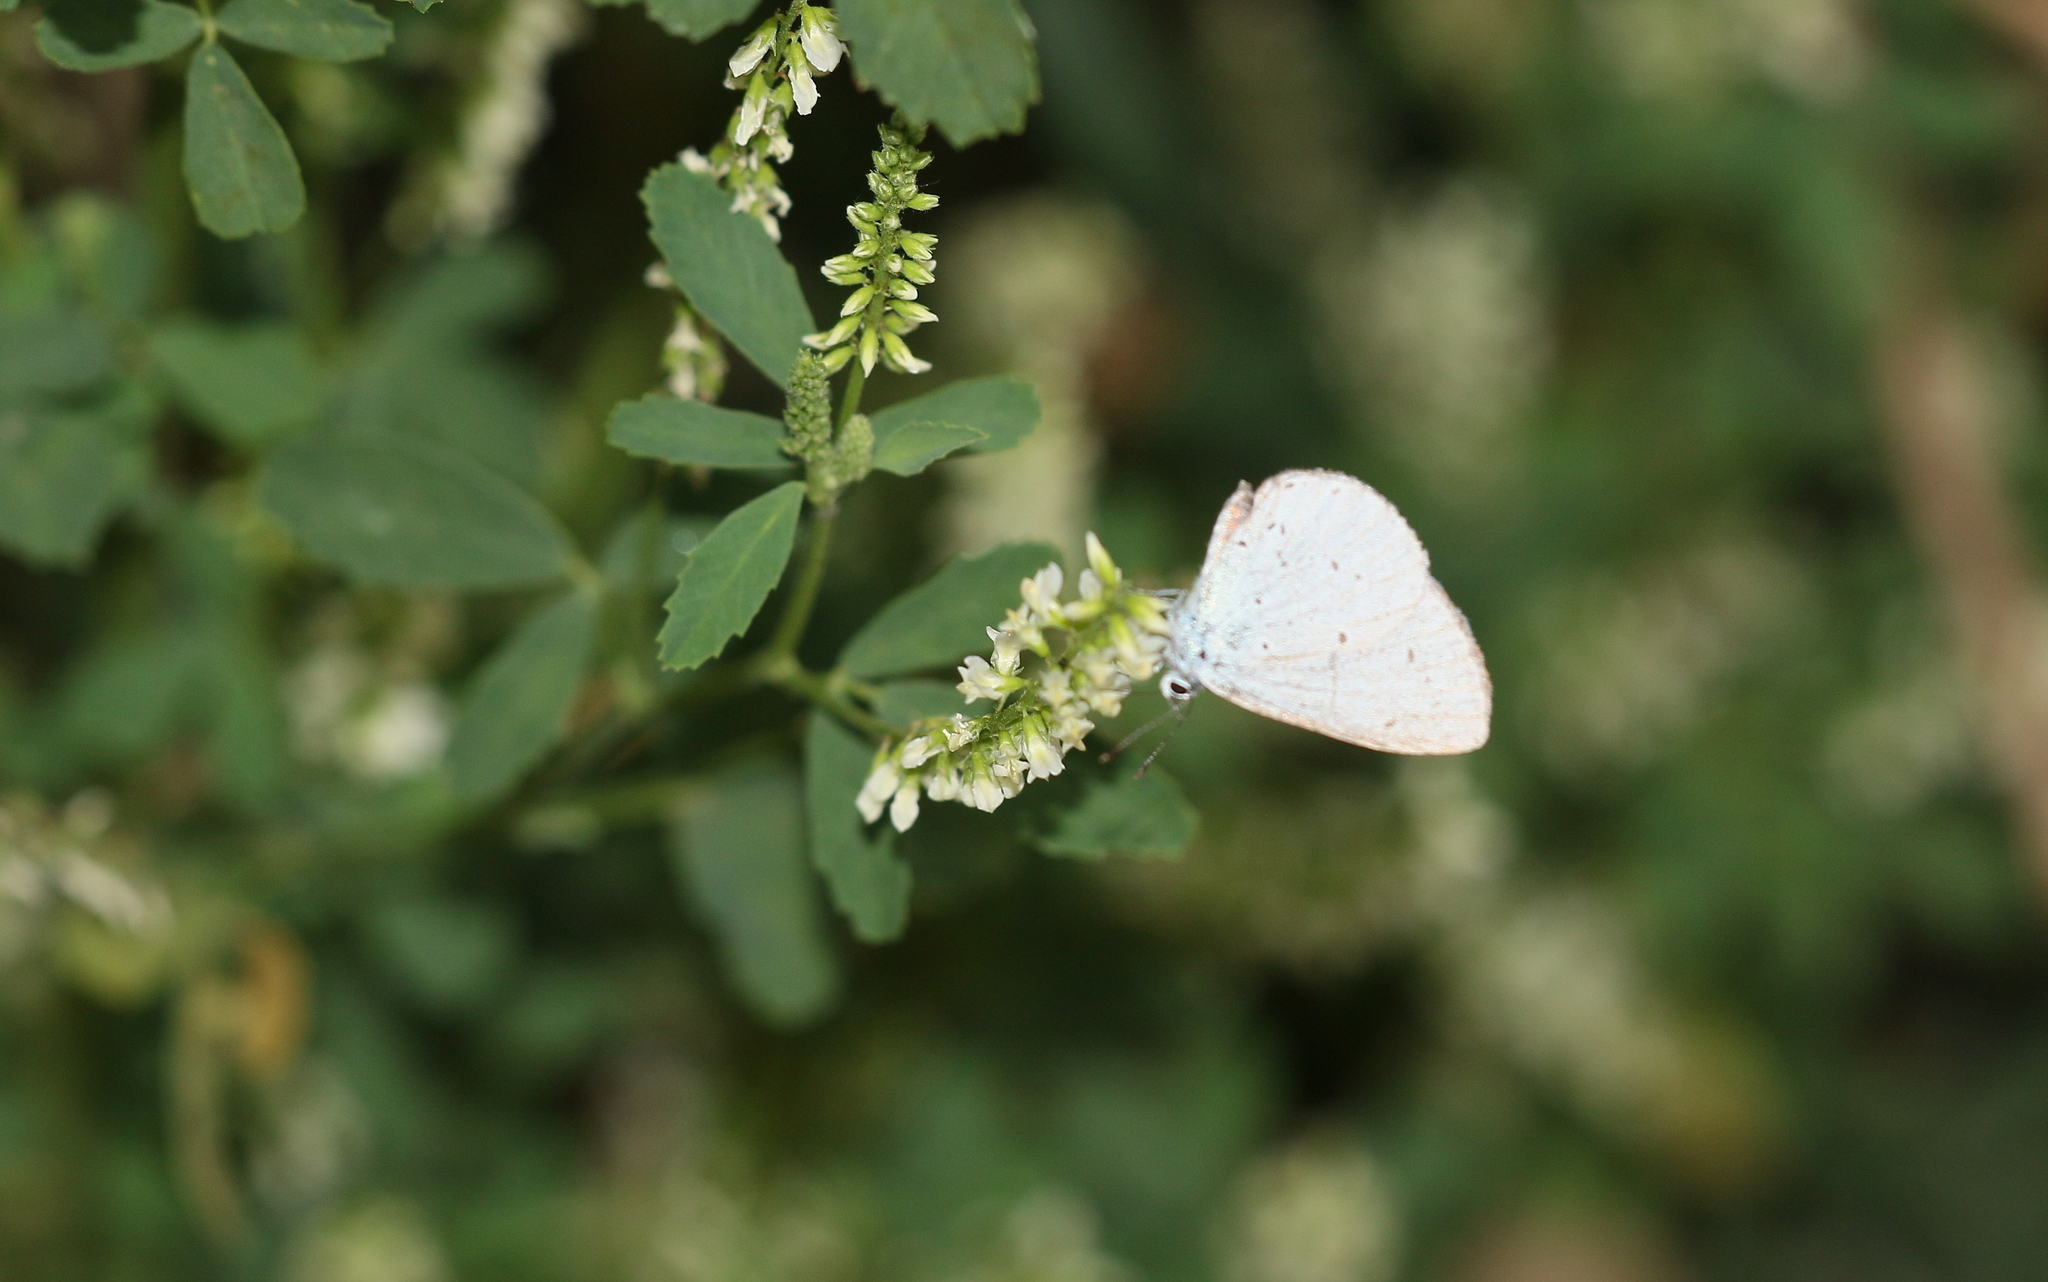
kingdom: Animalia
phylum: Arthropoda
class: Insecta
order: Lepidoptera
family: Lycaenidae
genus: Celastrina
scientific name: Celastrina argiolus
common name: Holly blue
